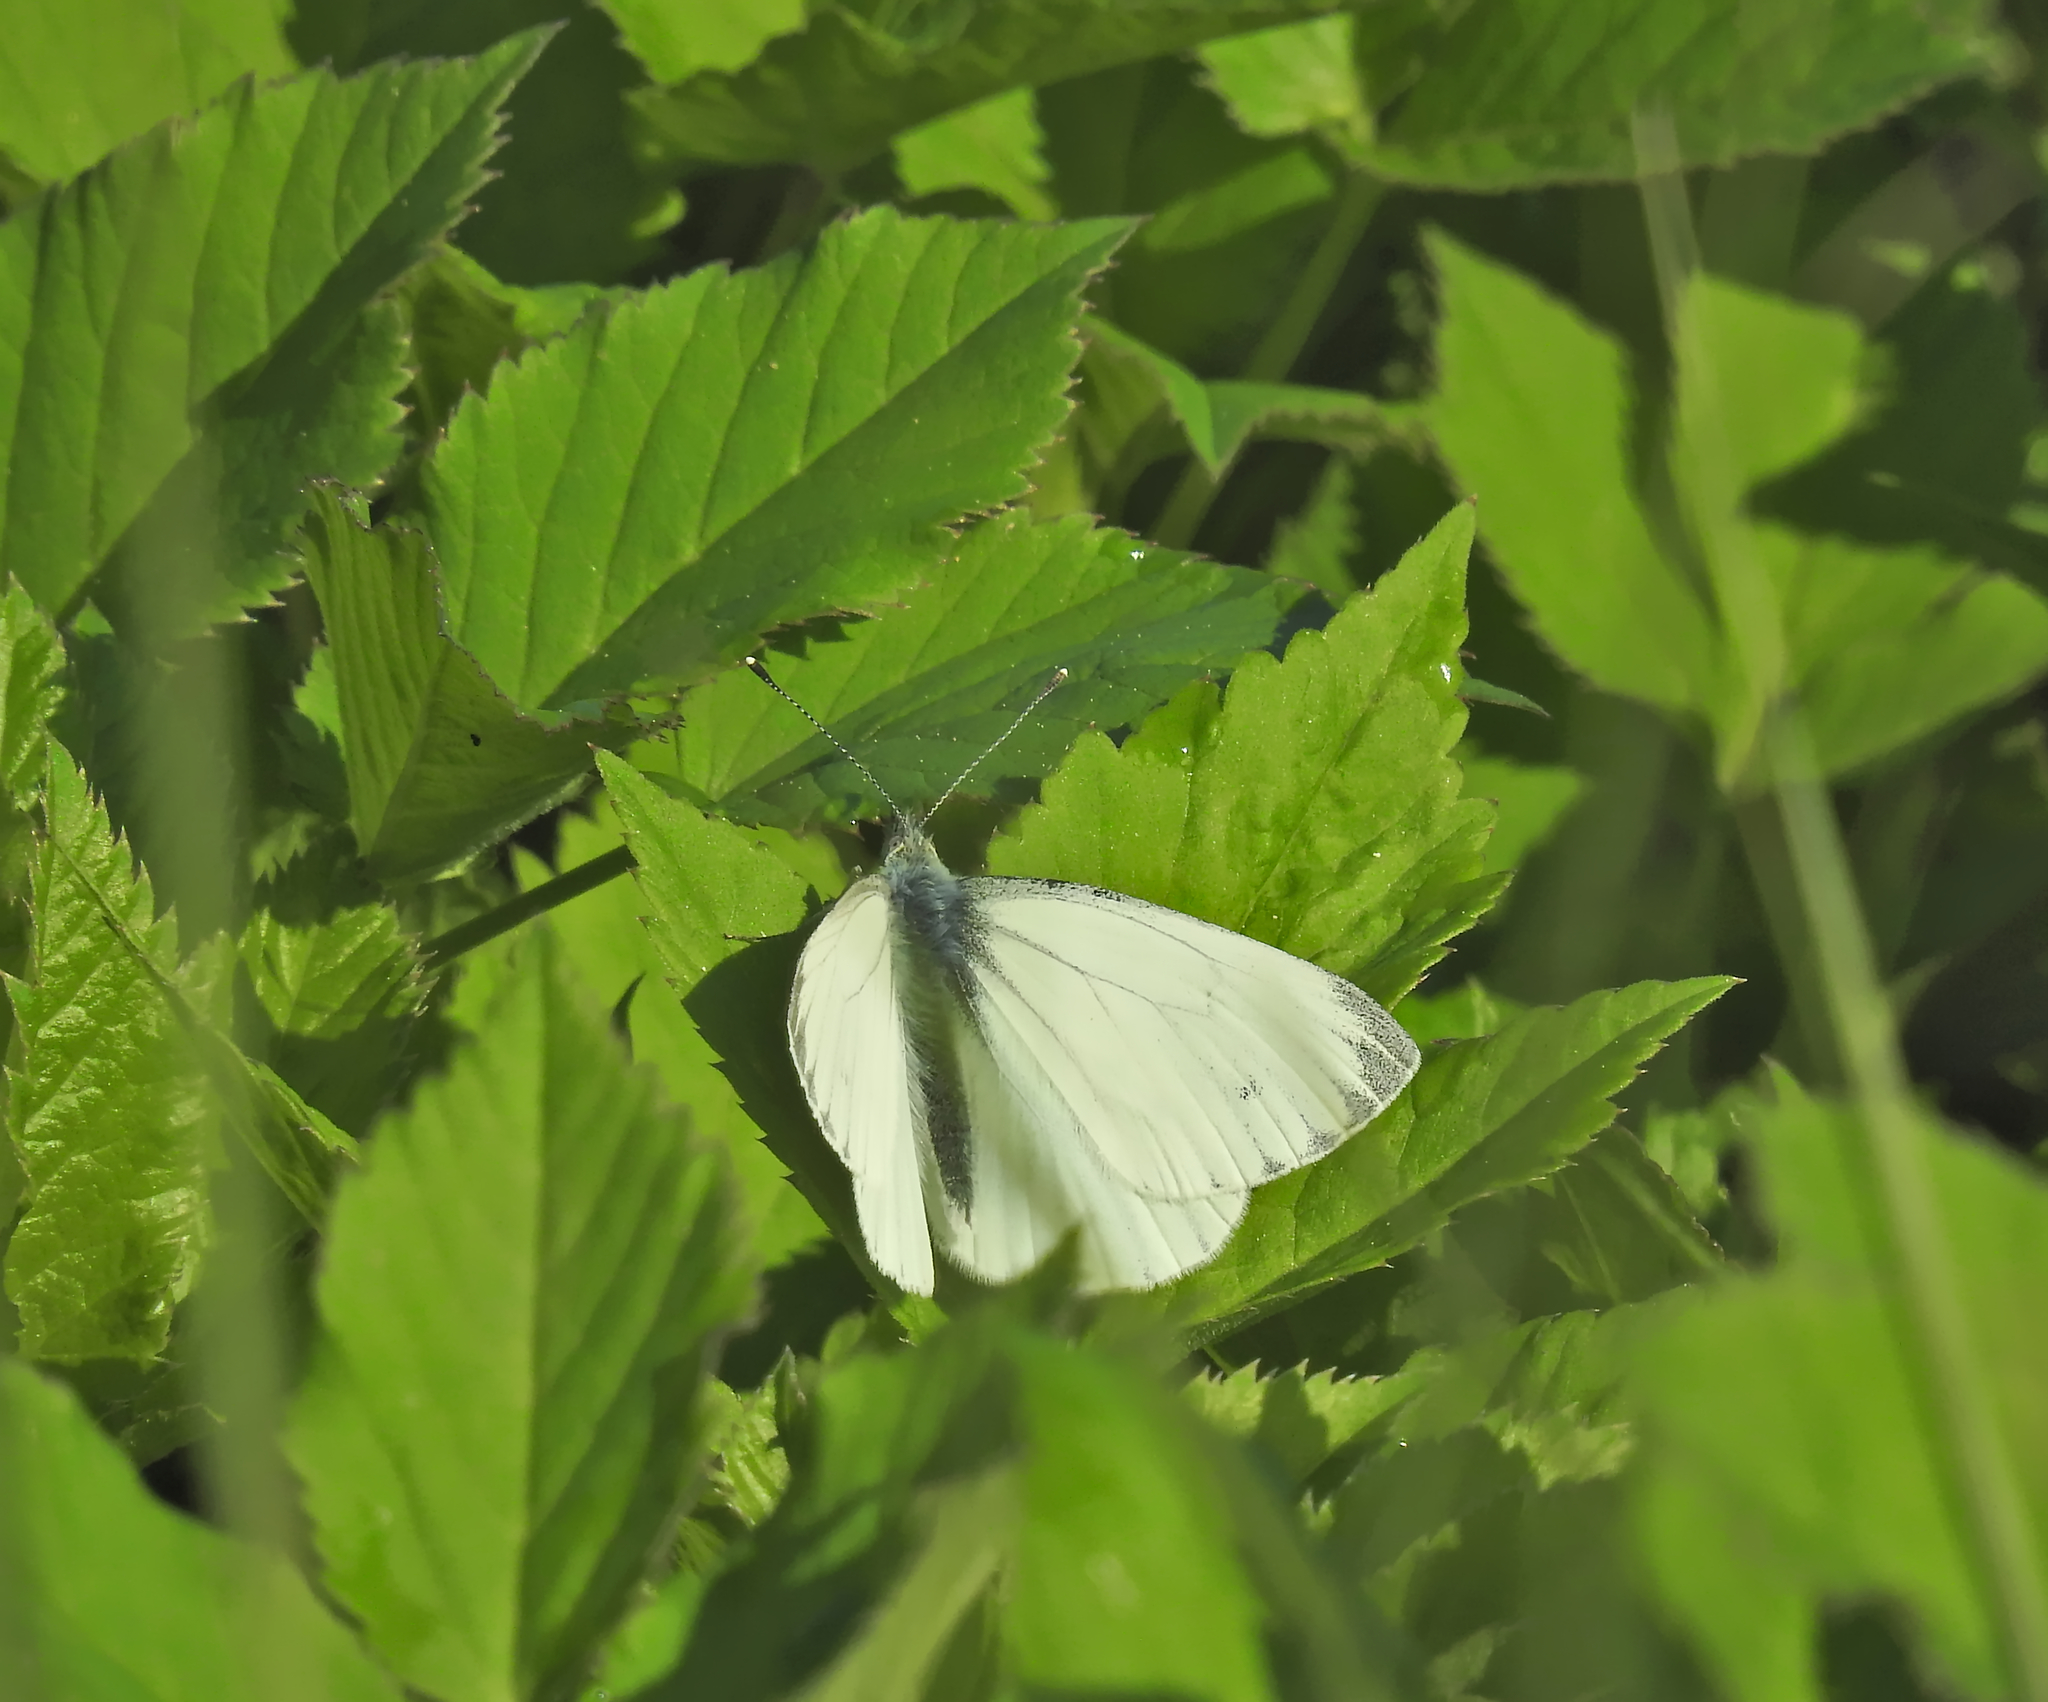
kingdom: Animalia
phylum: Arthropoda
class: Insecta
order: Lepidoptera
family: Pieridae
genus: Pieris
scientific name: Pieris napi
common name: Green-veined white
